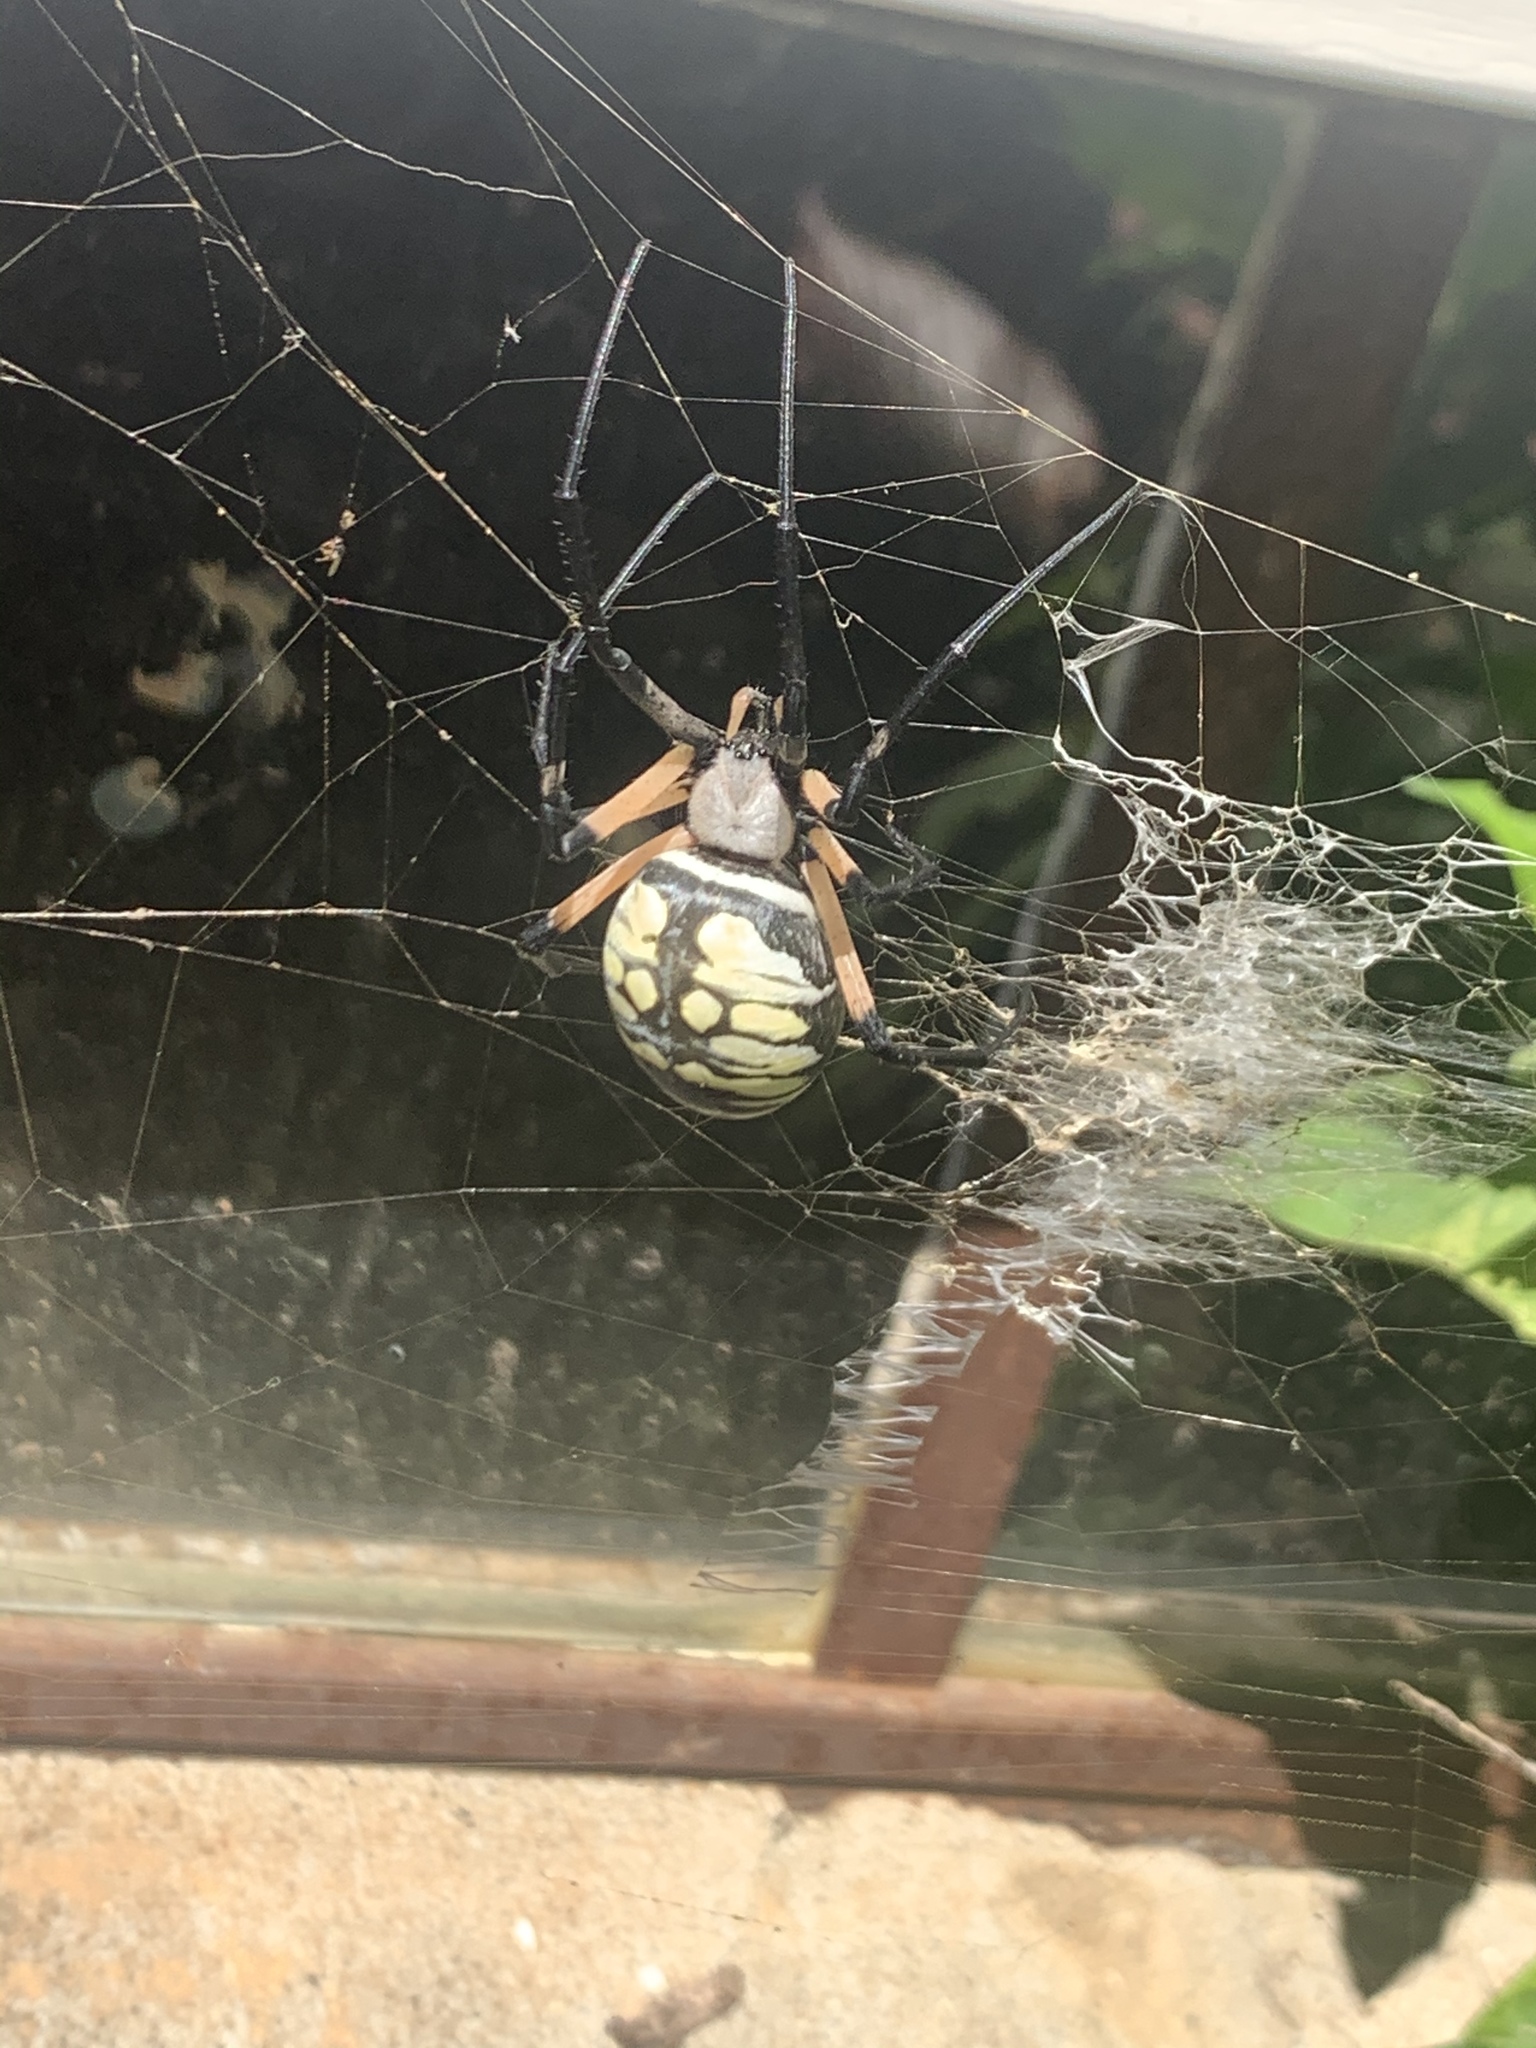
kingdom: Animalia
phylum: Arthropoda
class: Arachnida
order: Araneae
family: Araneidae
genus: Argiope
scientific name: Argiope aurantia
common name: Orb weavers
